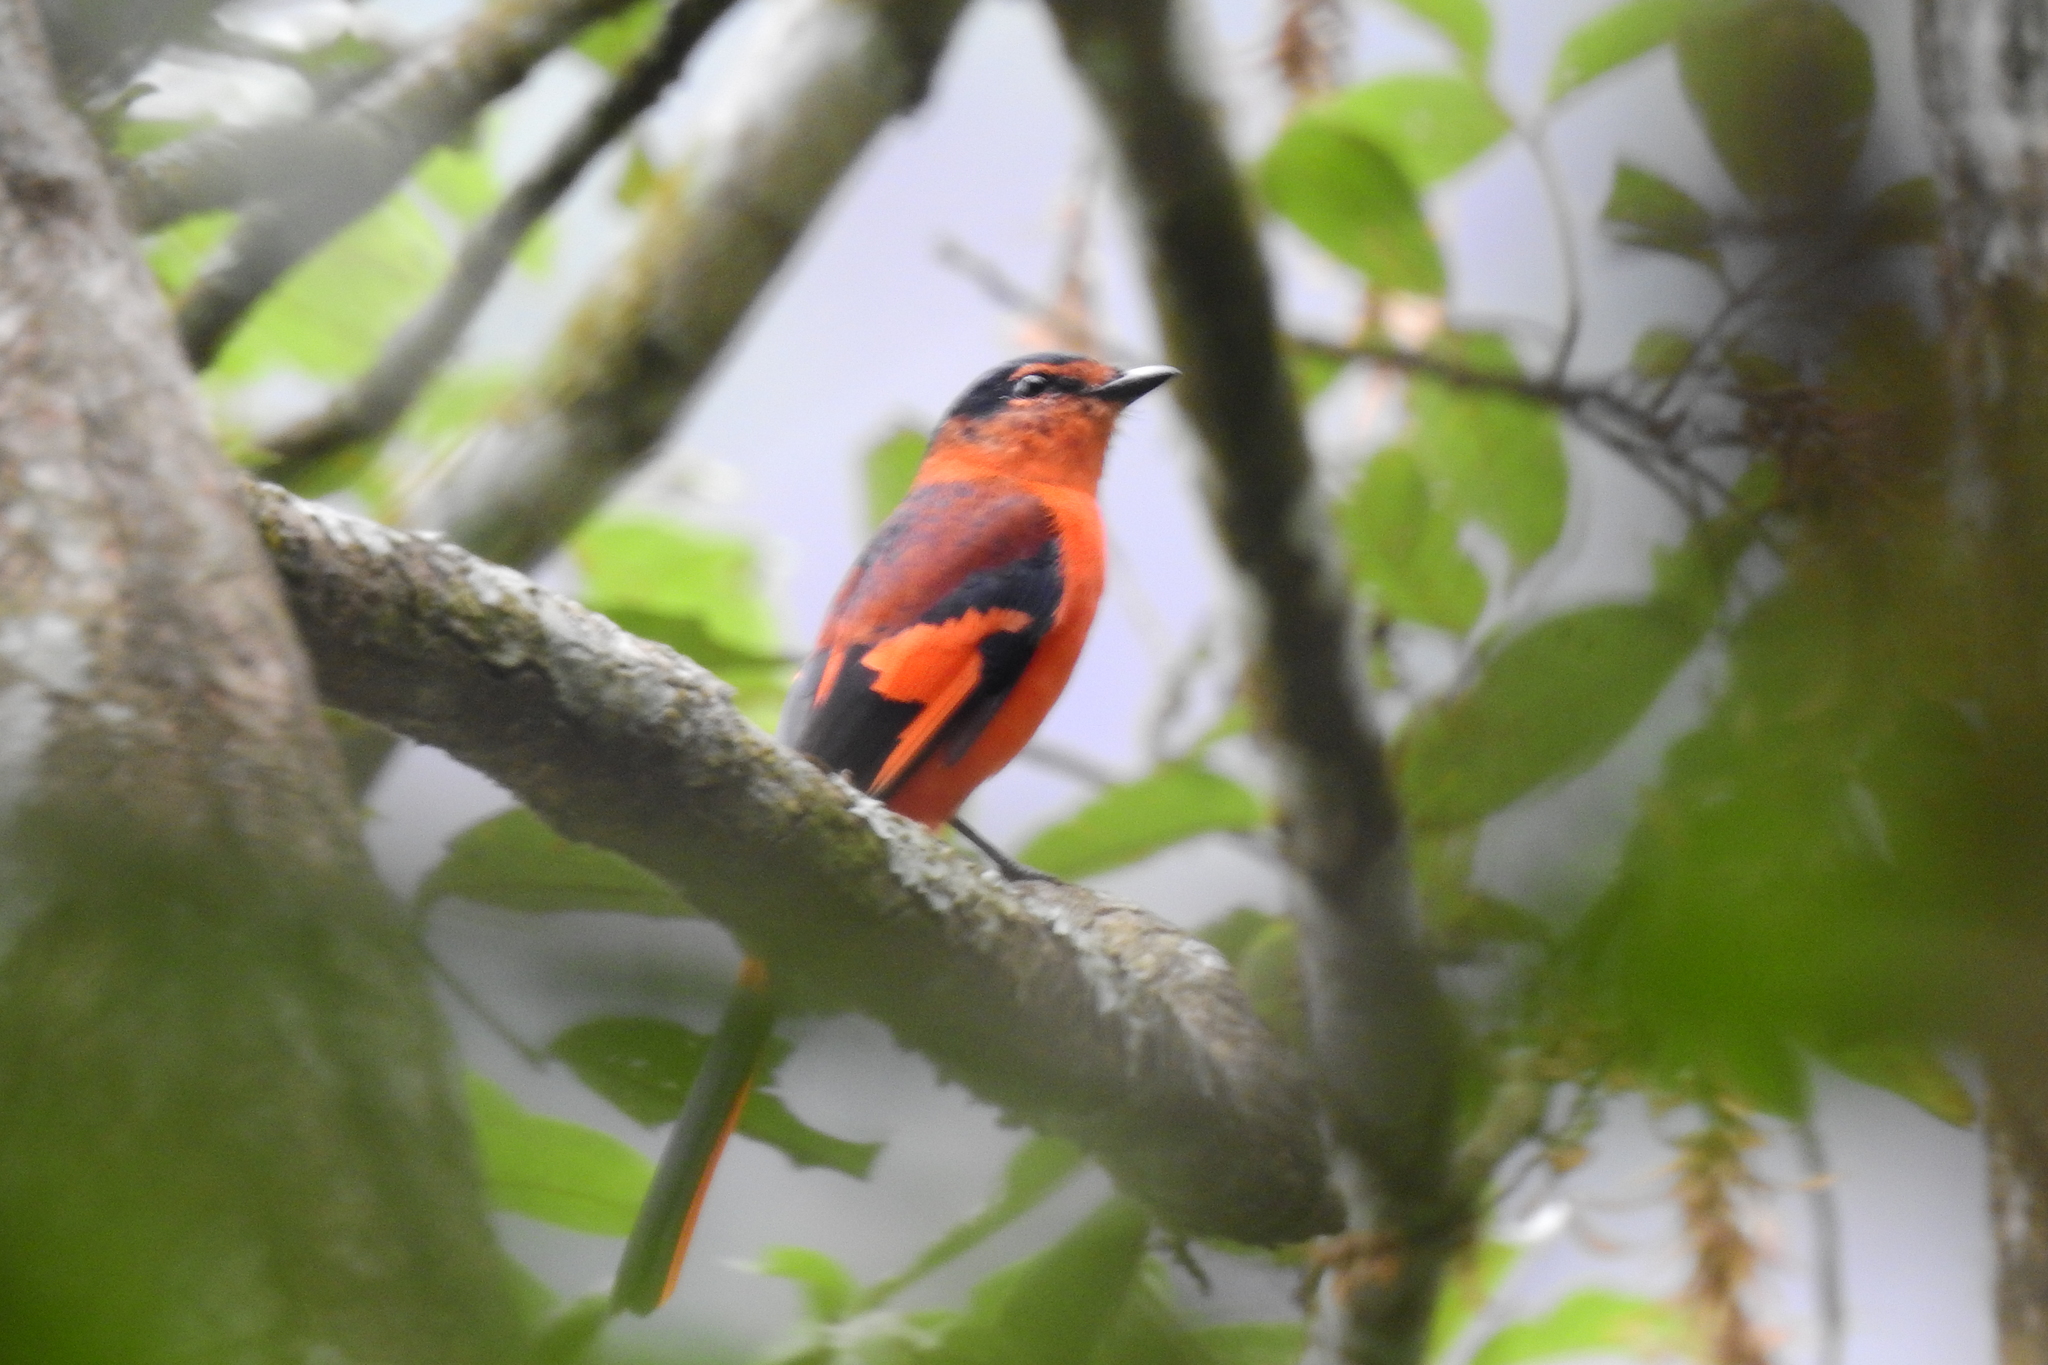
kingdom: Animalia
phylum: Chordata
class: Aves
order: Passeriformes
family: Campephagidae
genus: Pericrocotus
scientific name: Pericrocotus miniatus
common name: Sunda minivet
